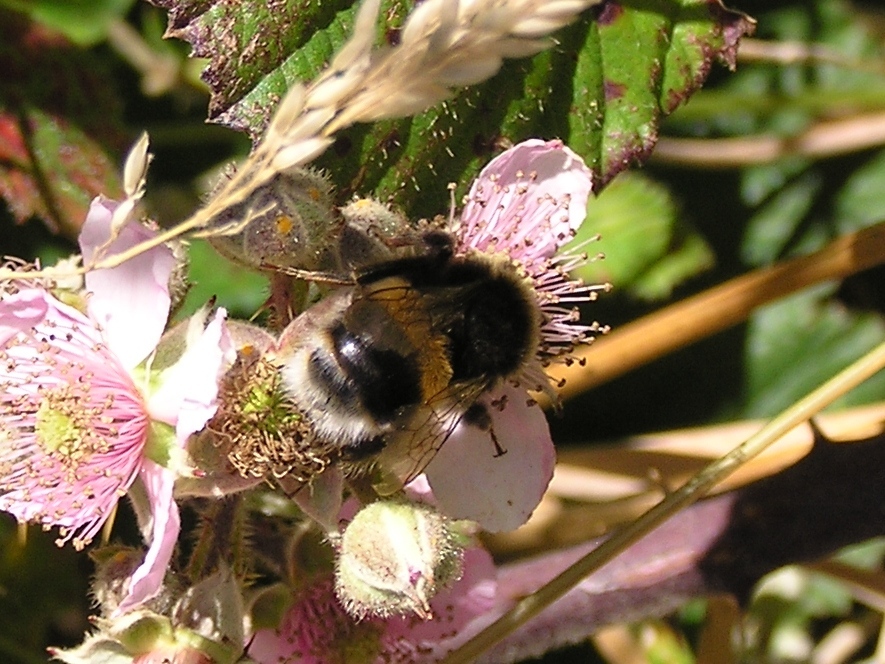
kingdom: Animalia
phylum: Arthropoda
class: Insecta
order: Hymenoptera
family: Apidae
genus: Bombus
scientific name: Bombus terrestris
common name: Buff-tailed bumblebee
